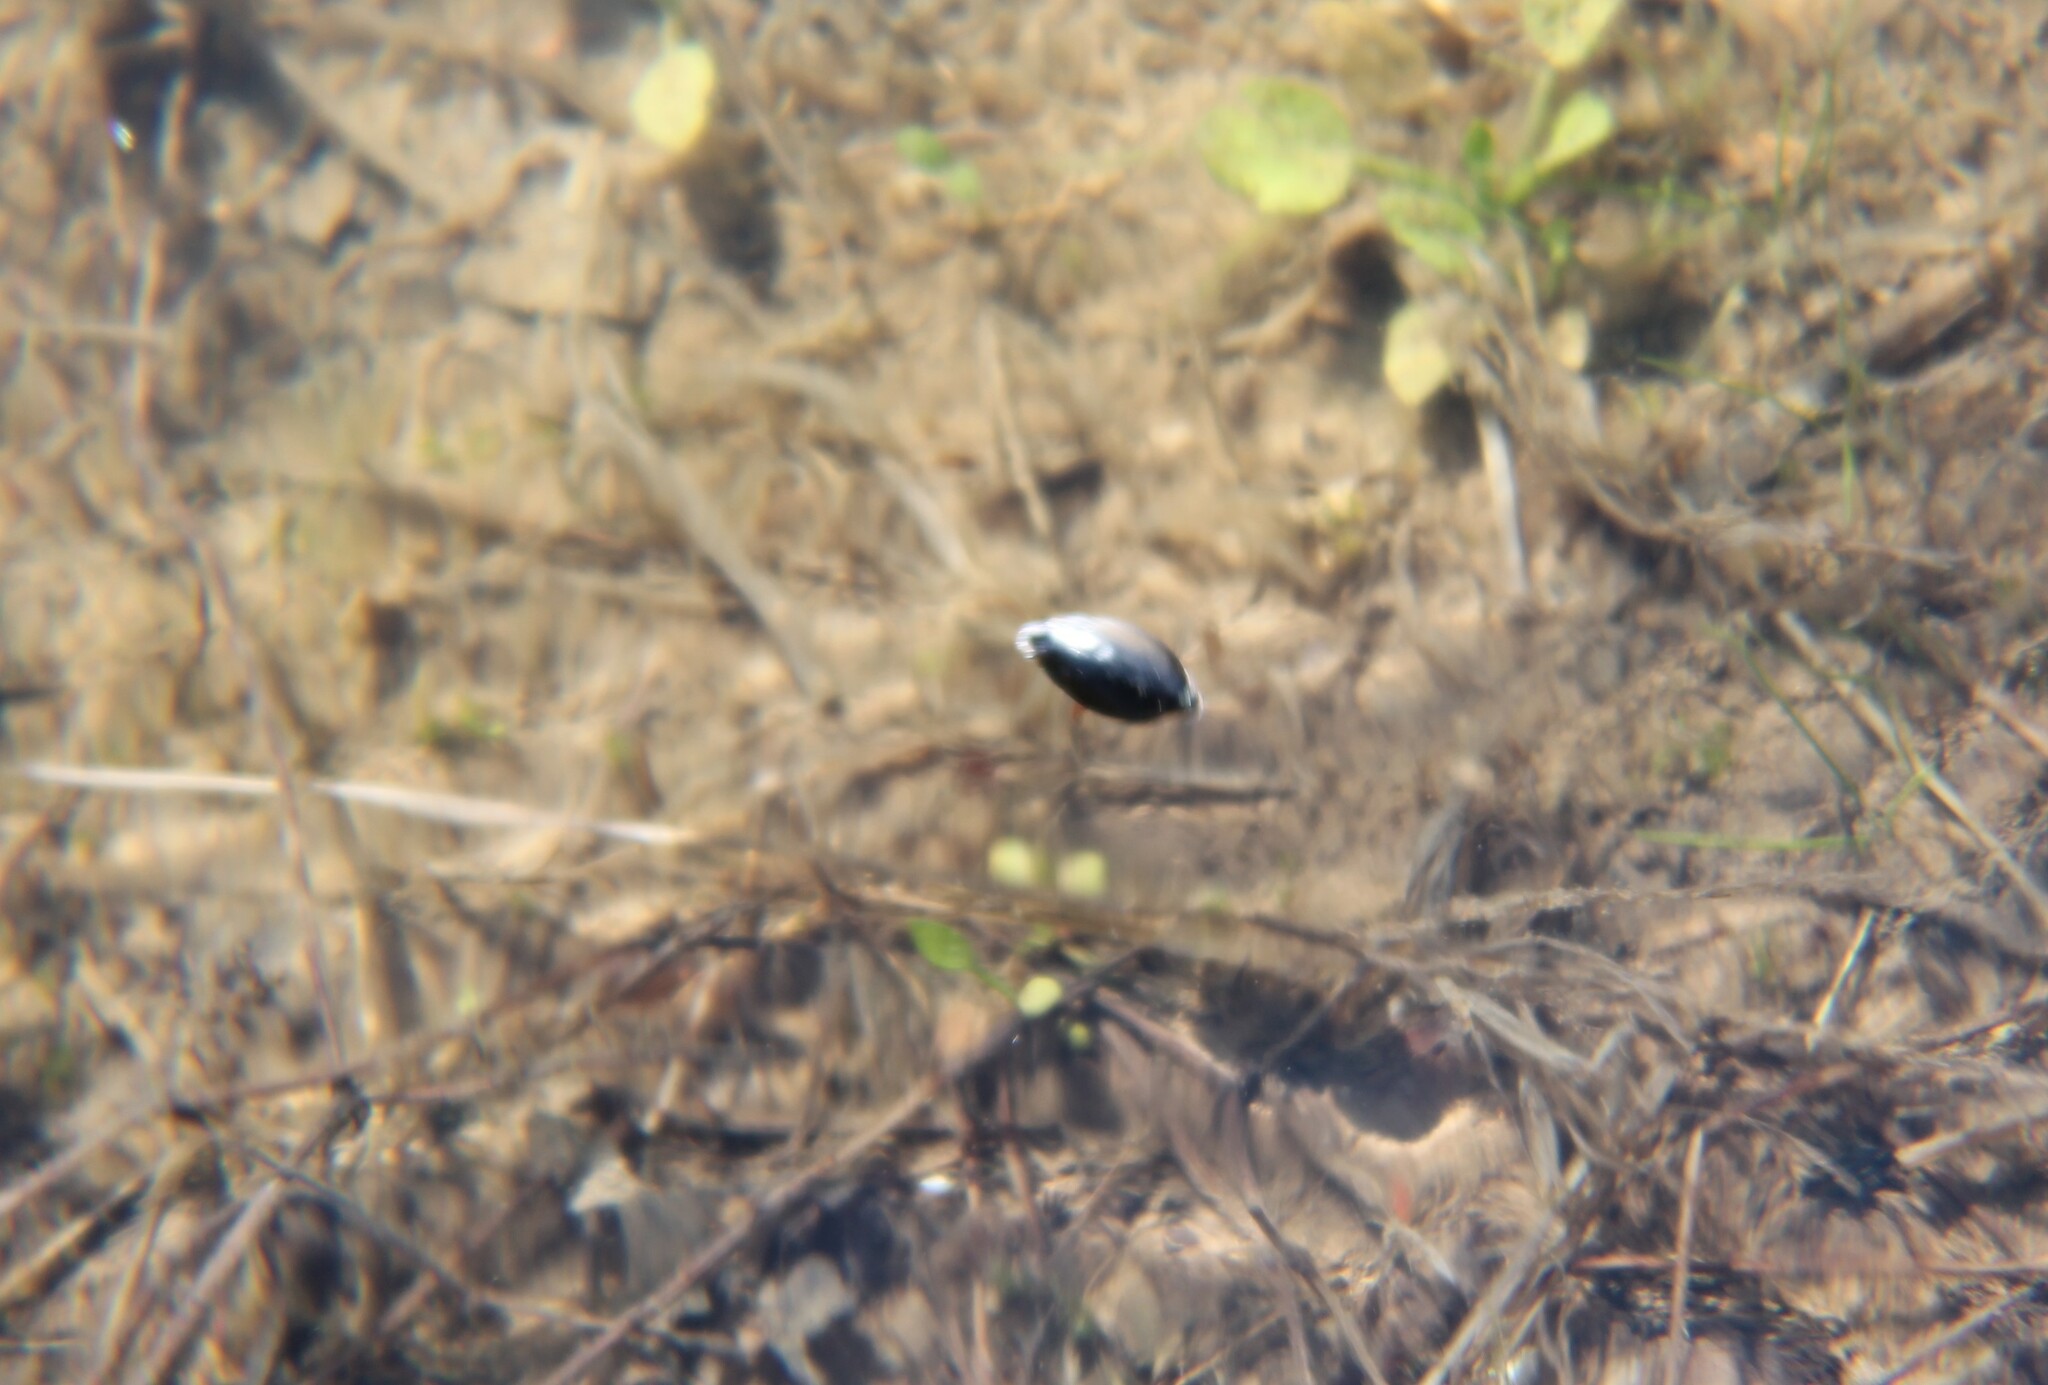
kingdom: Animalia
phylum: Arthropoda
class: Insecta
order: Coleoptera
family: Gyrinidae
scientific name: Gyrinidae
